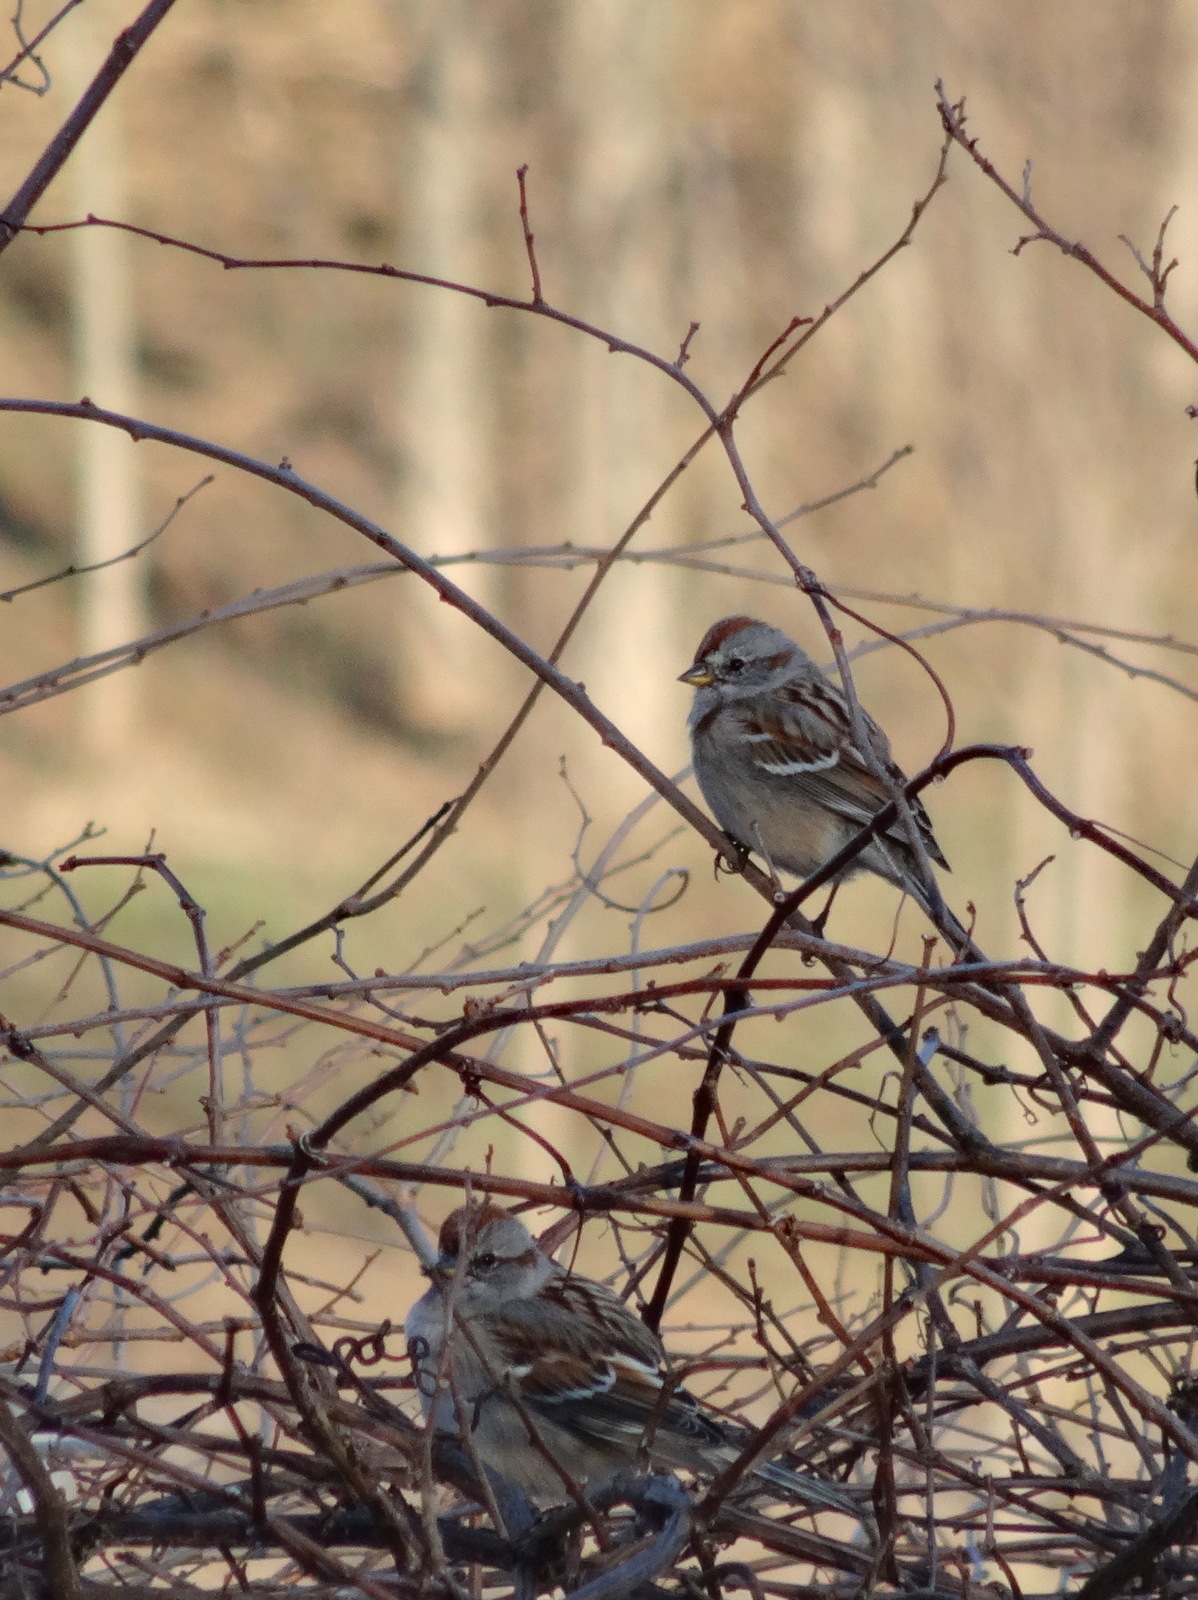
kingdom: Animalia
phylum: Chordata
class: Aves
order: Passeriformes
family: Passerellidae
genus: Spizelloides
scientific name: Spizelloides arborea
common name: American tree sparrow
